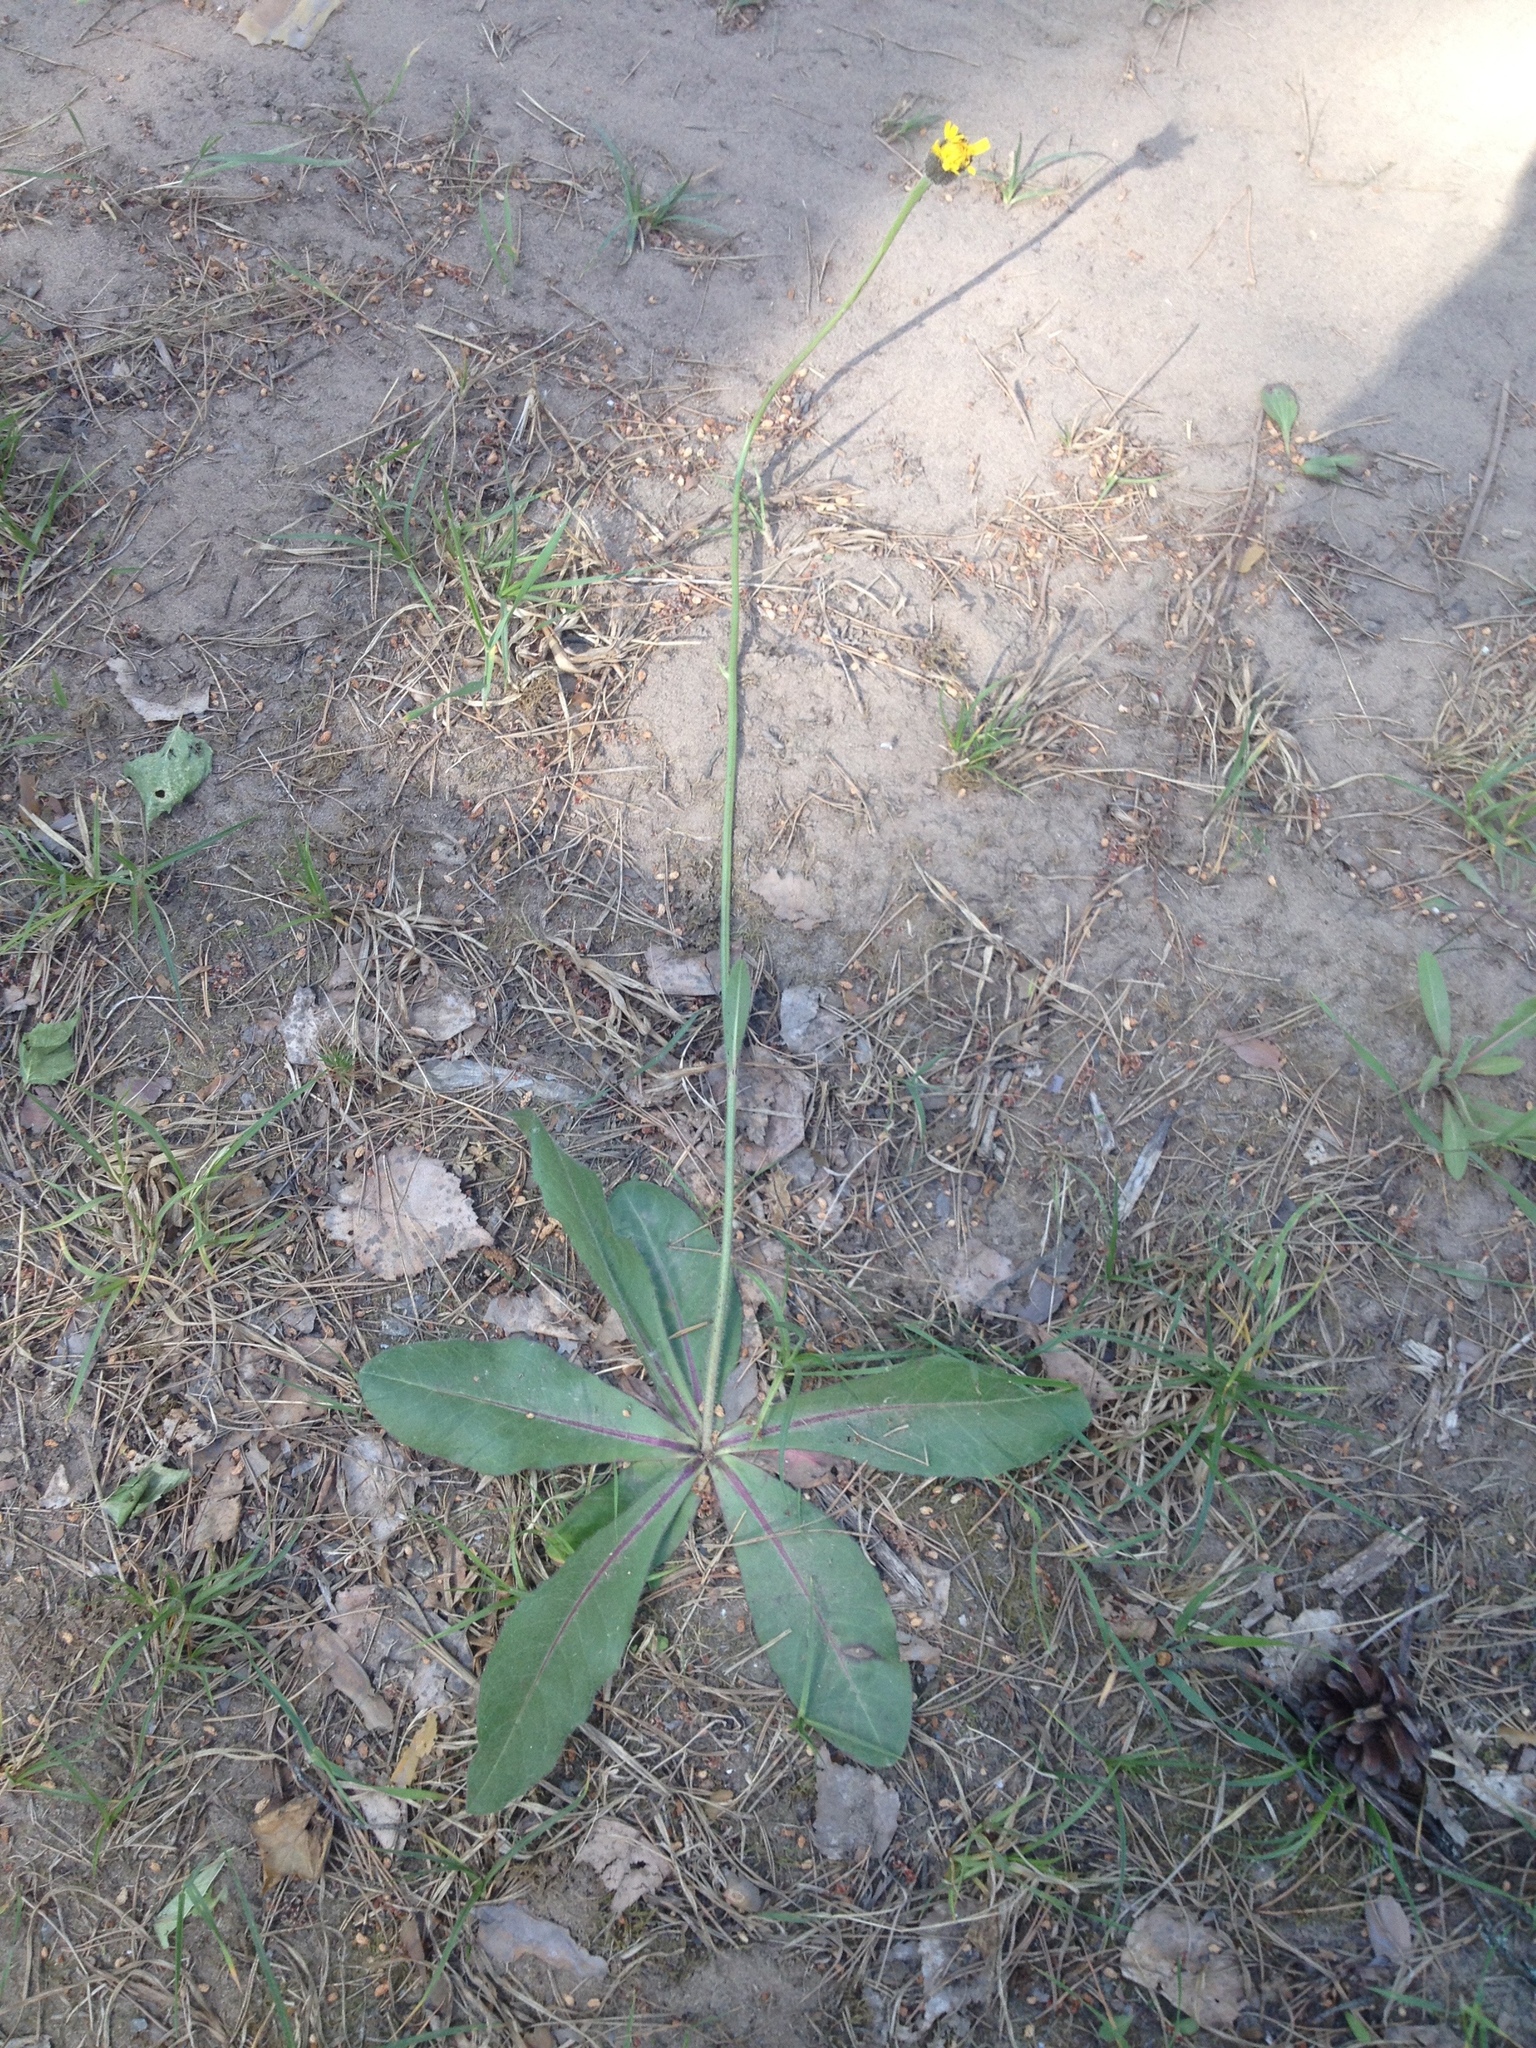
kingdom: Plantae
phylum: Tracheophyta
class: Magnoliopsida
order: Asterales
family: Asteraceae
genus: Trommsdorffia
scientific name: Trommsdorffia maculata
